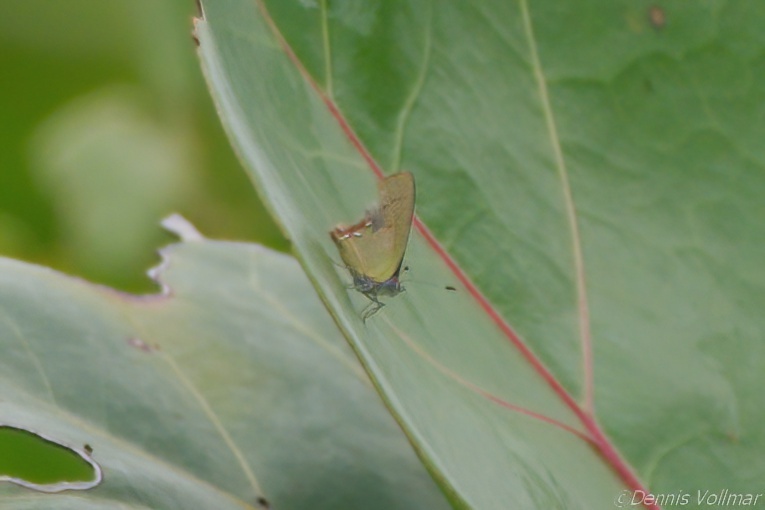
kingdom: Animalia
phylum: Arthropoda
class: Insecta
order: Lepidoptera
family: Lycaenidae
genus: Thecla
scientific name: Thecla maesites
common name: Verde azul hairstreak
